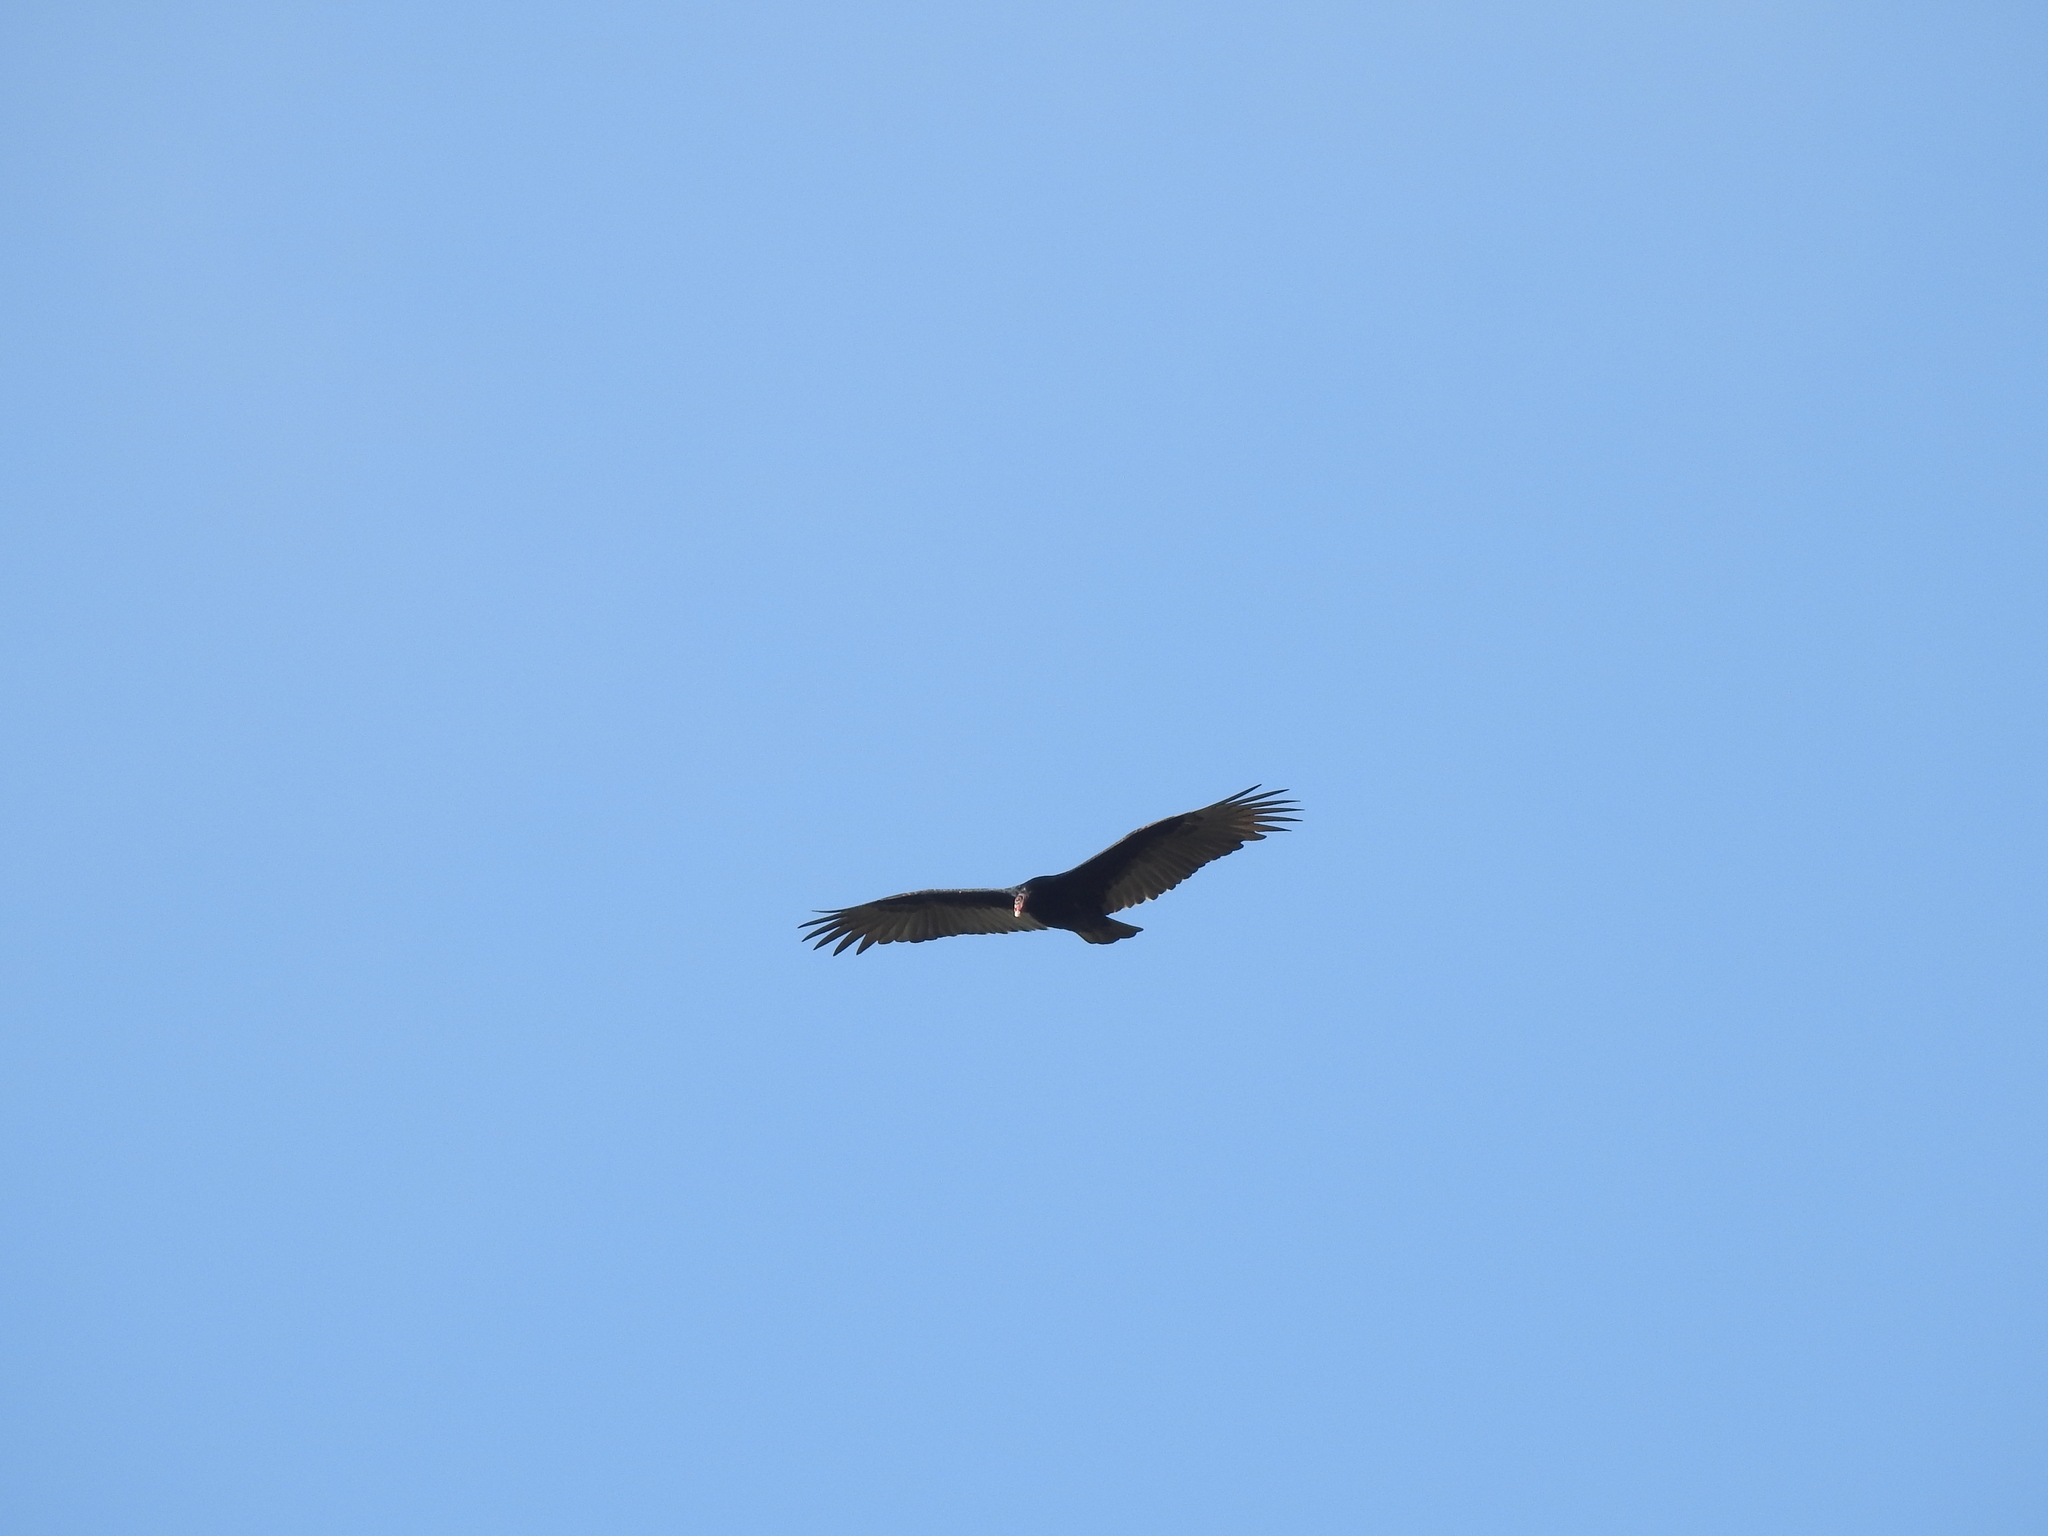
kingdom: Animalia
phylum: Chordata
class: Aves
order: Accipitriformes
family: Cathartidae
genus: Cathartes
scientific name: Cathartes aura
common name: Turkey vulture
